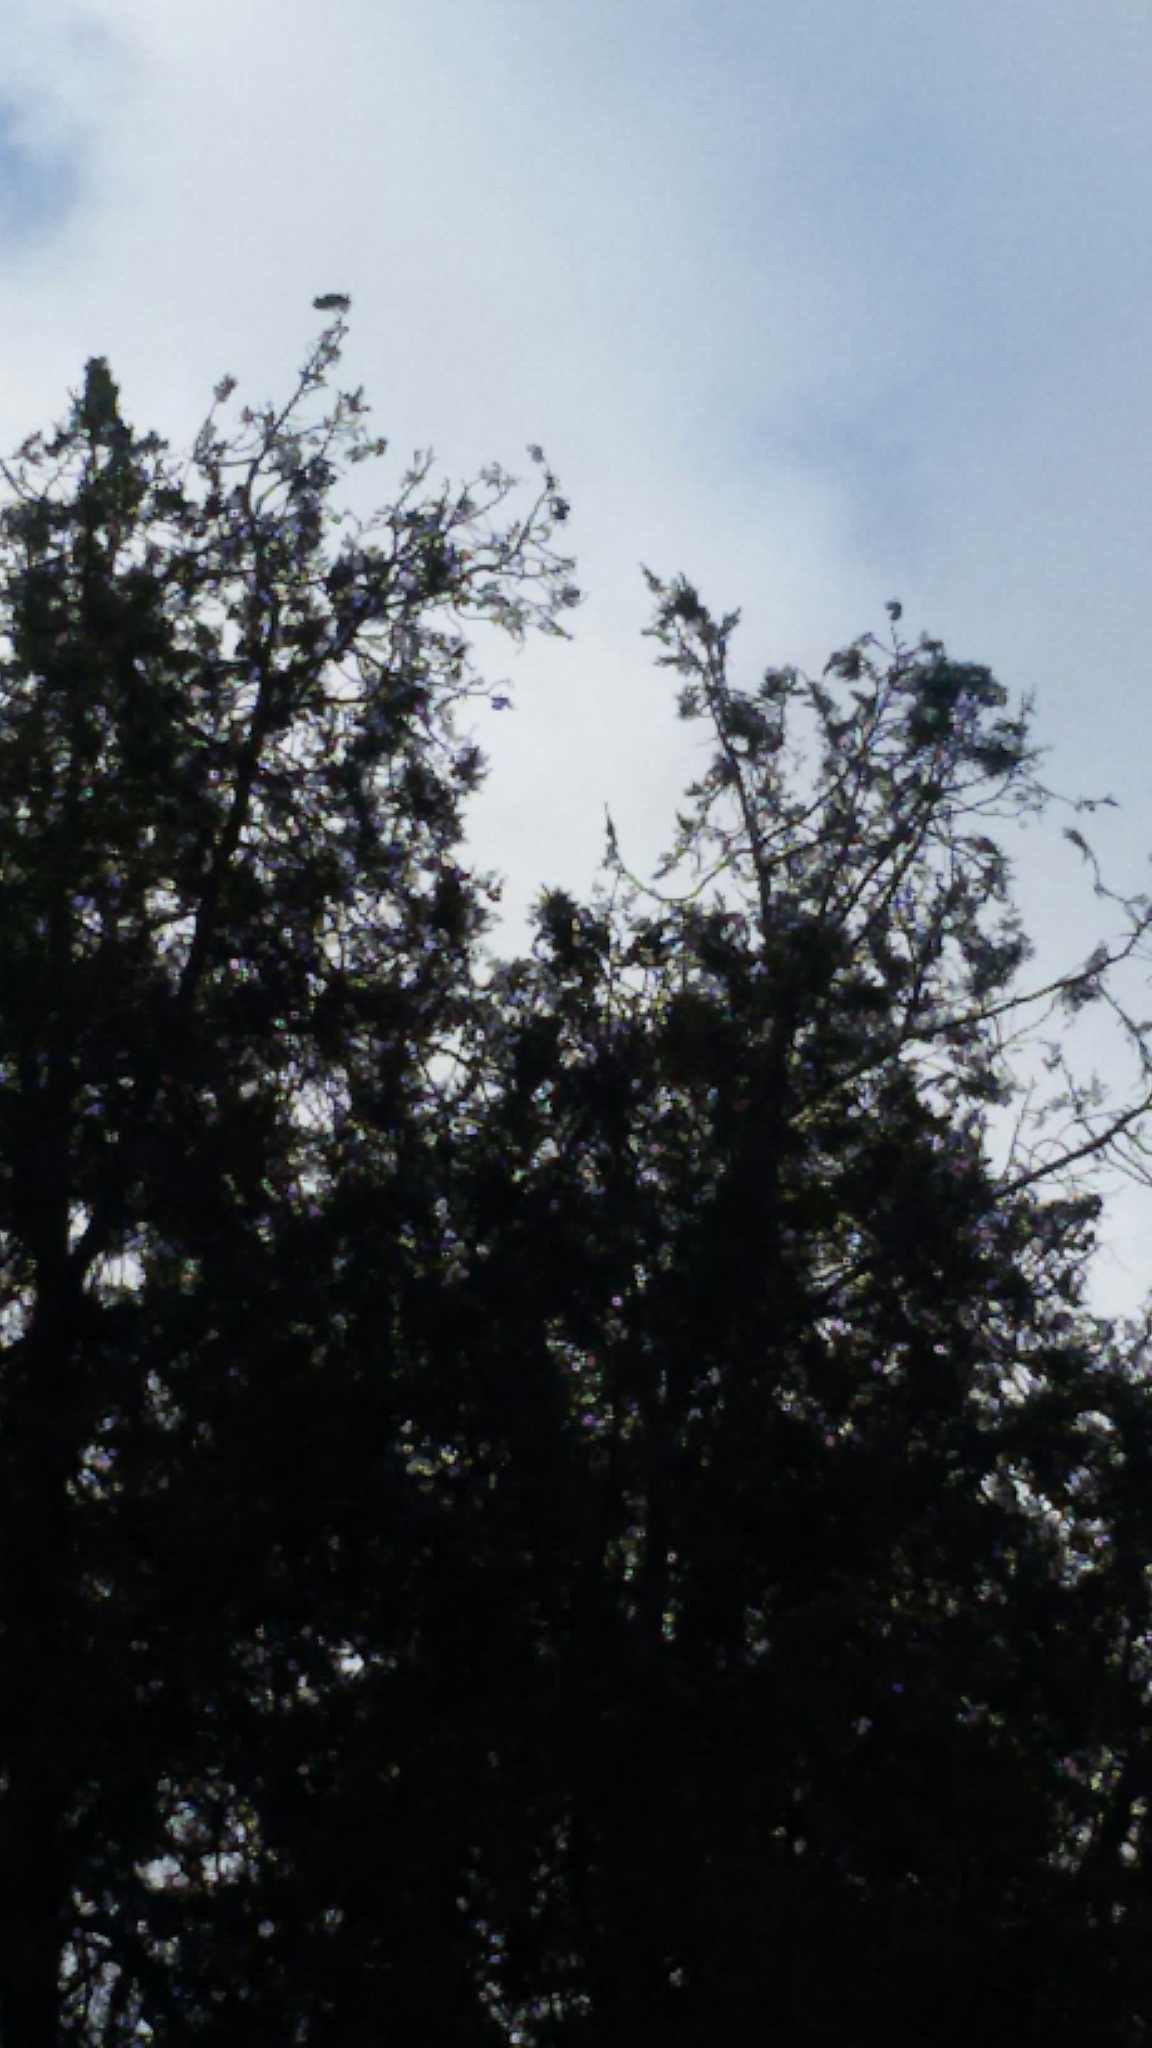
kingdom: Animalia
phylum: Chordata
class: Aves
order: Psittaciformes
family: Psittacidae
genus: Myiopsitta
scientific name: Myiopsitta monachus
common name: Monk parakeet
